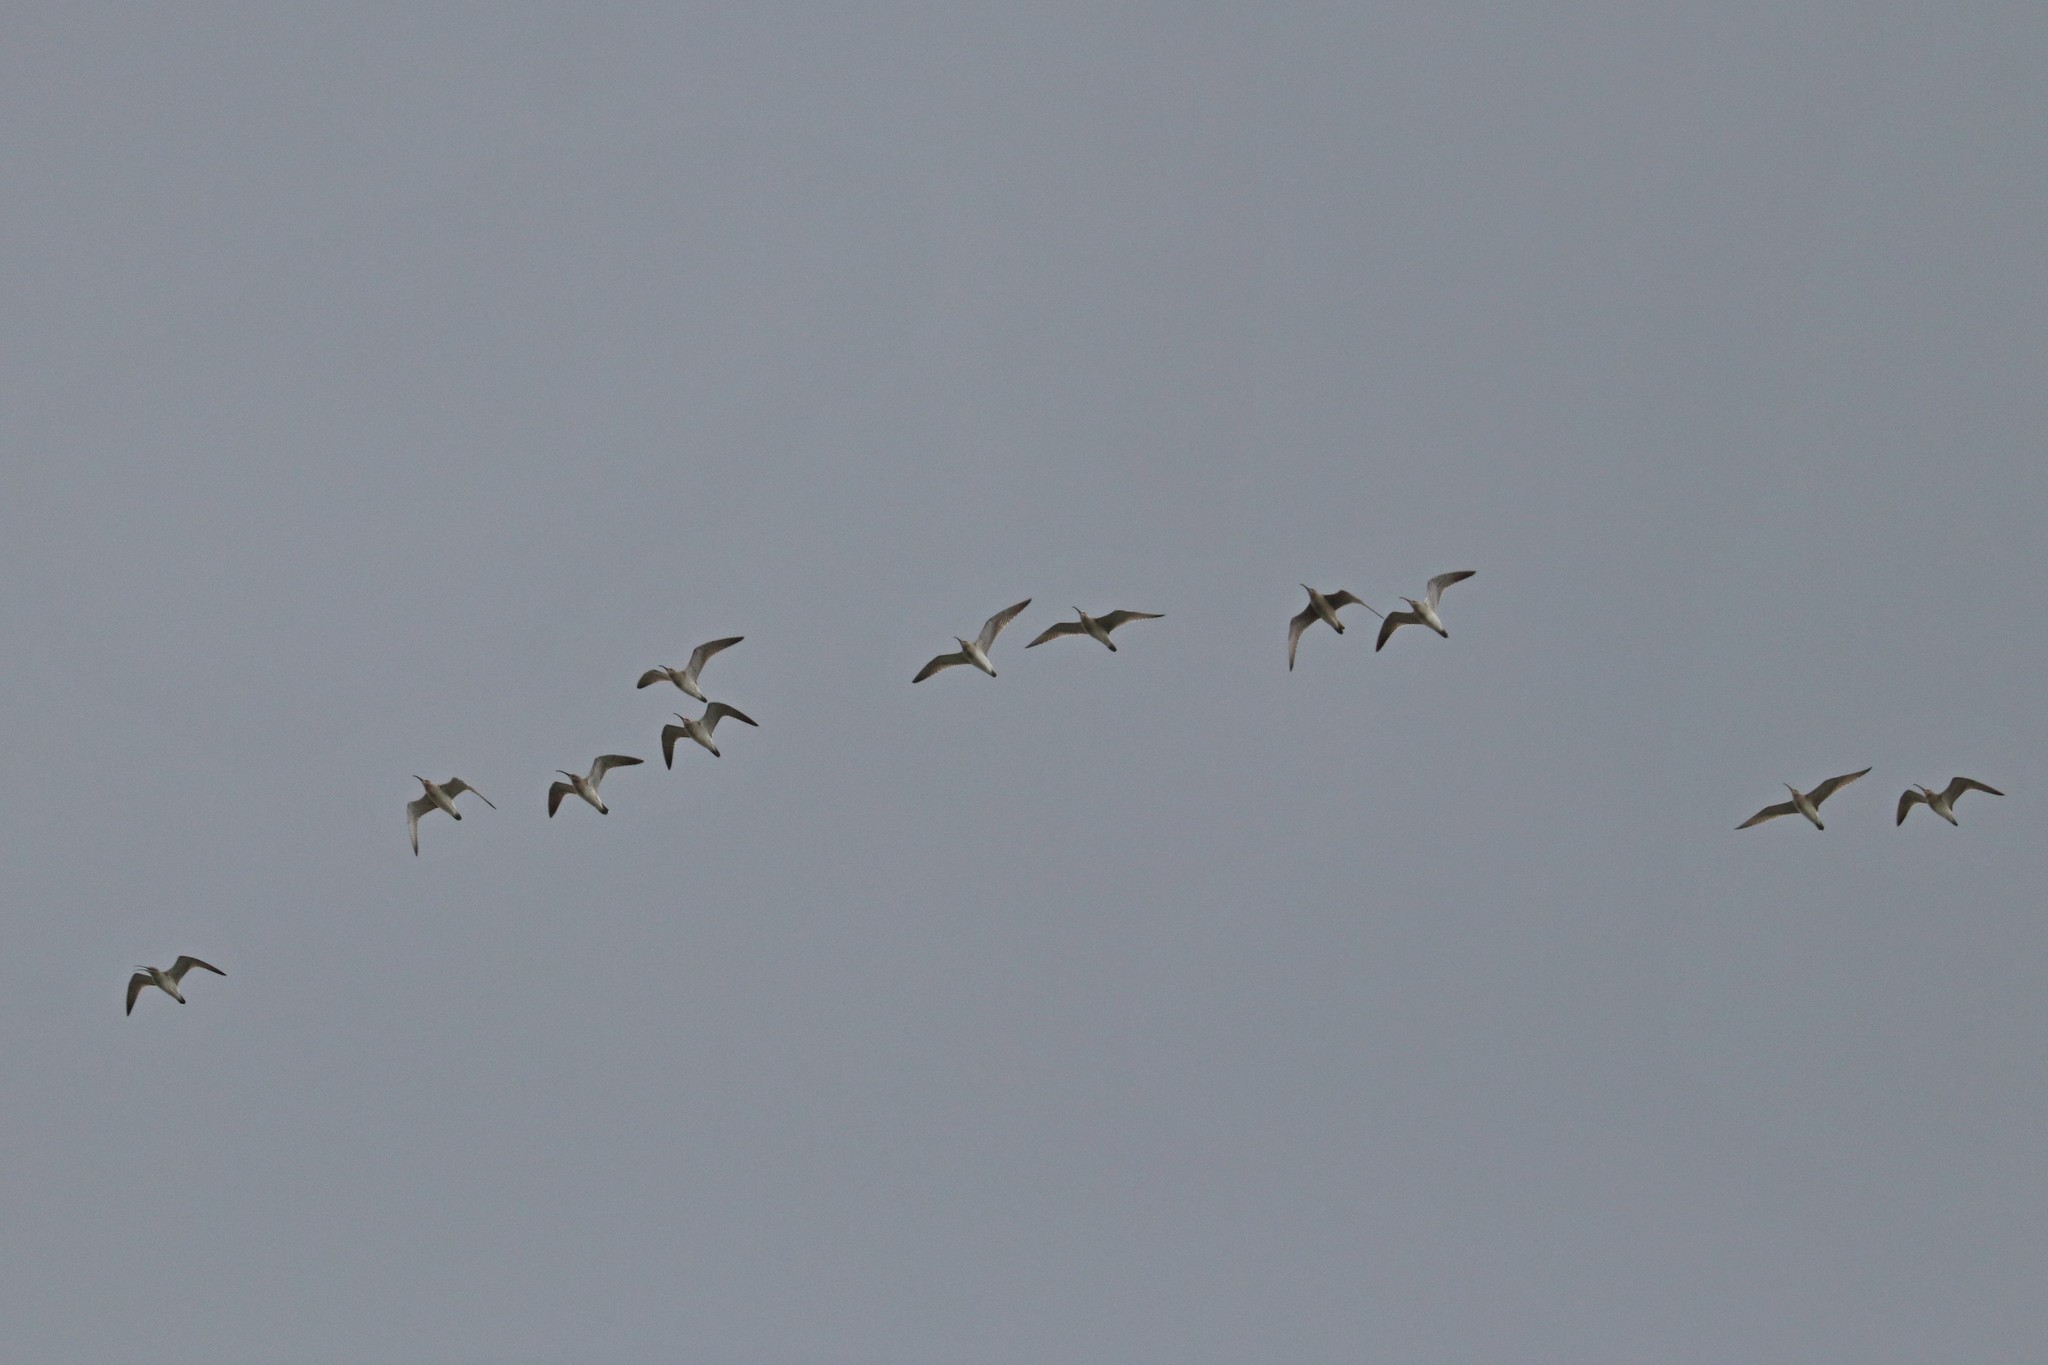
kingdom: Animalia
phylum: Chordata
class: Aves
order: Charadriiformes
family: Scolopacidae
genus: Numenius
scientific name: Numenius phaeopus
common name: Whimbrel
